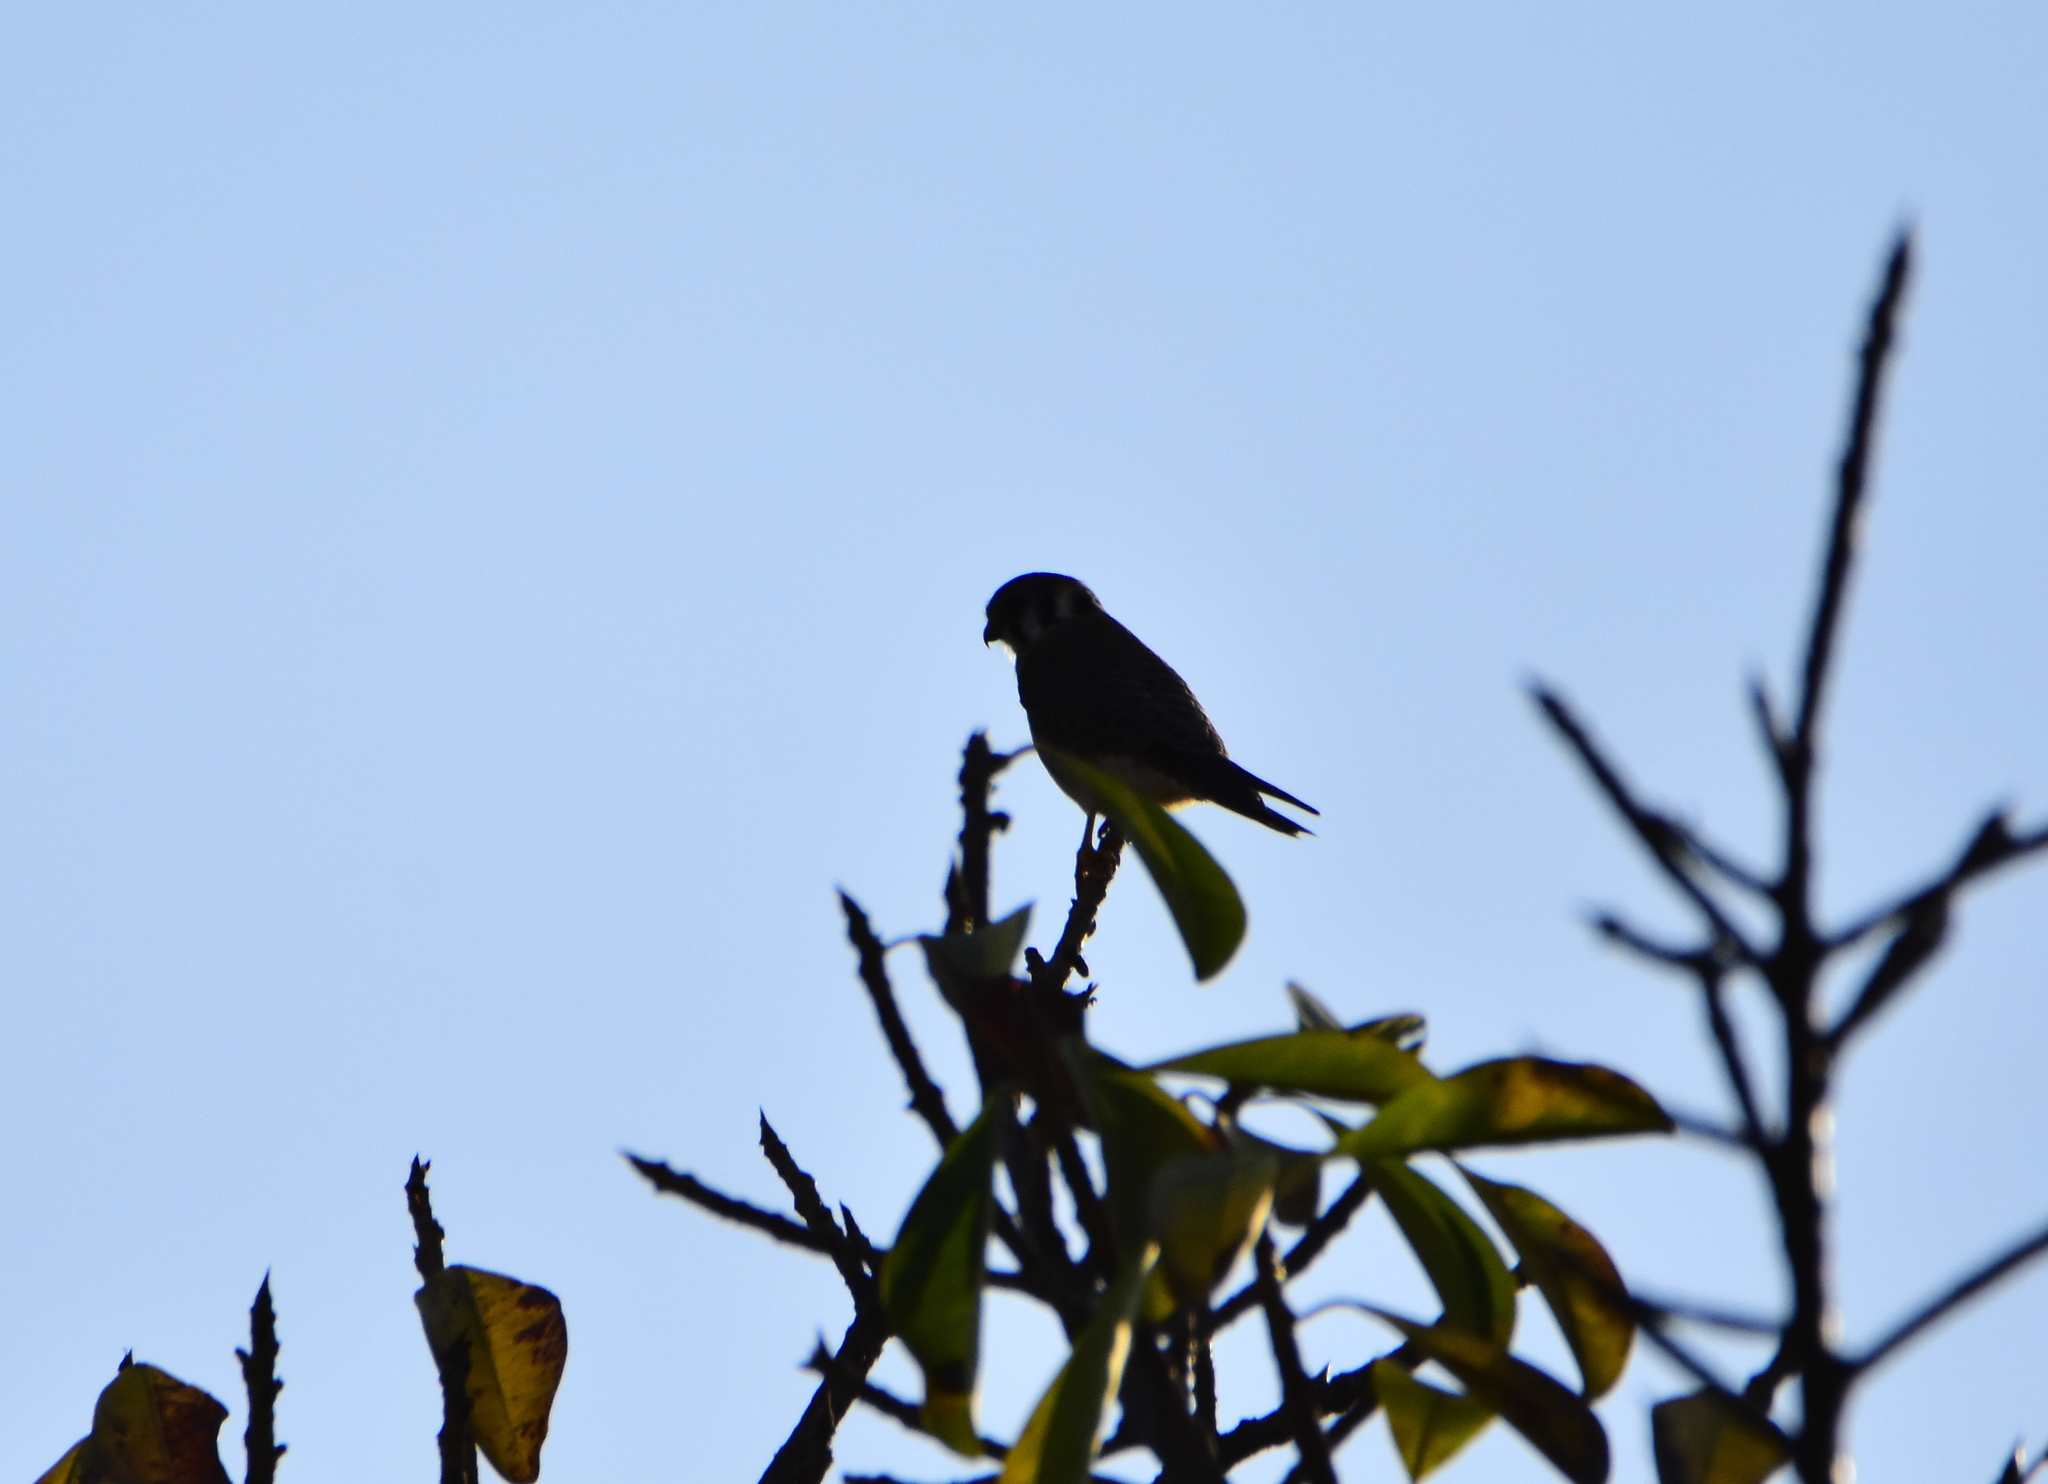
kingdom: Animalia
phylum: Chordata
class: Aves
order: Falconiformes
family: Falconidae
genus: Falco
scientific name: Falco sparverius
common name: American kestrel
